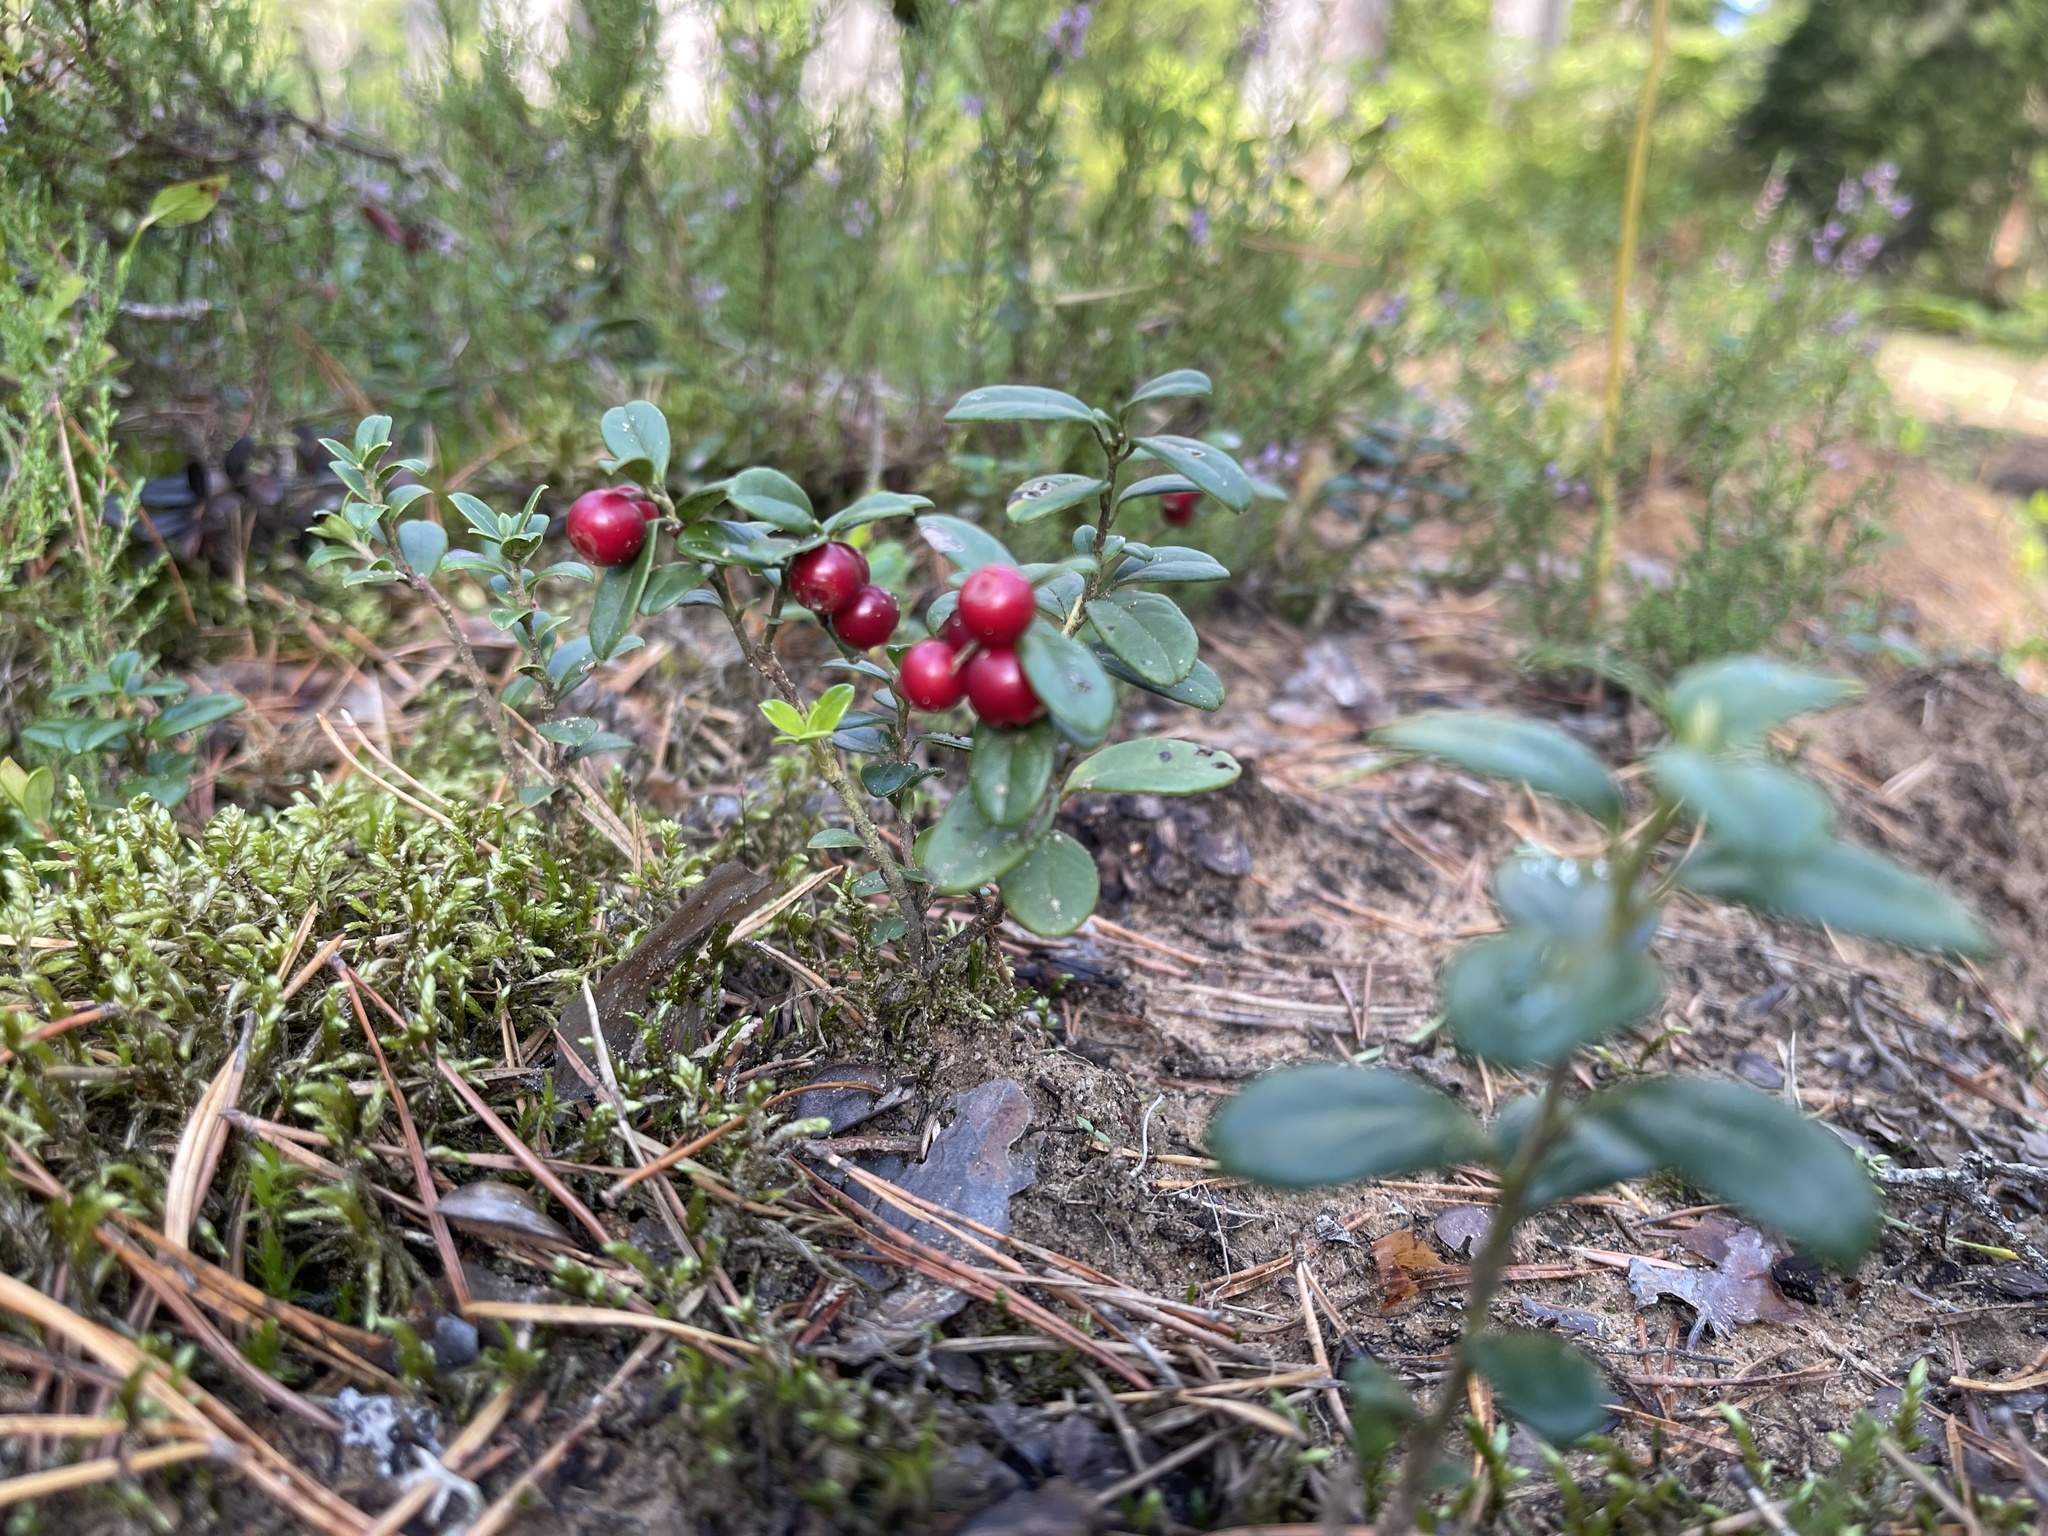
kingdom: Plantae
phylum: Tracheophyta
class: Magnoliopsida
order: Ericales
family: Ericaceae
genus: Vaccinium
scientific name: Vaccinium vitis-idaea
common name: Cowberry
